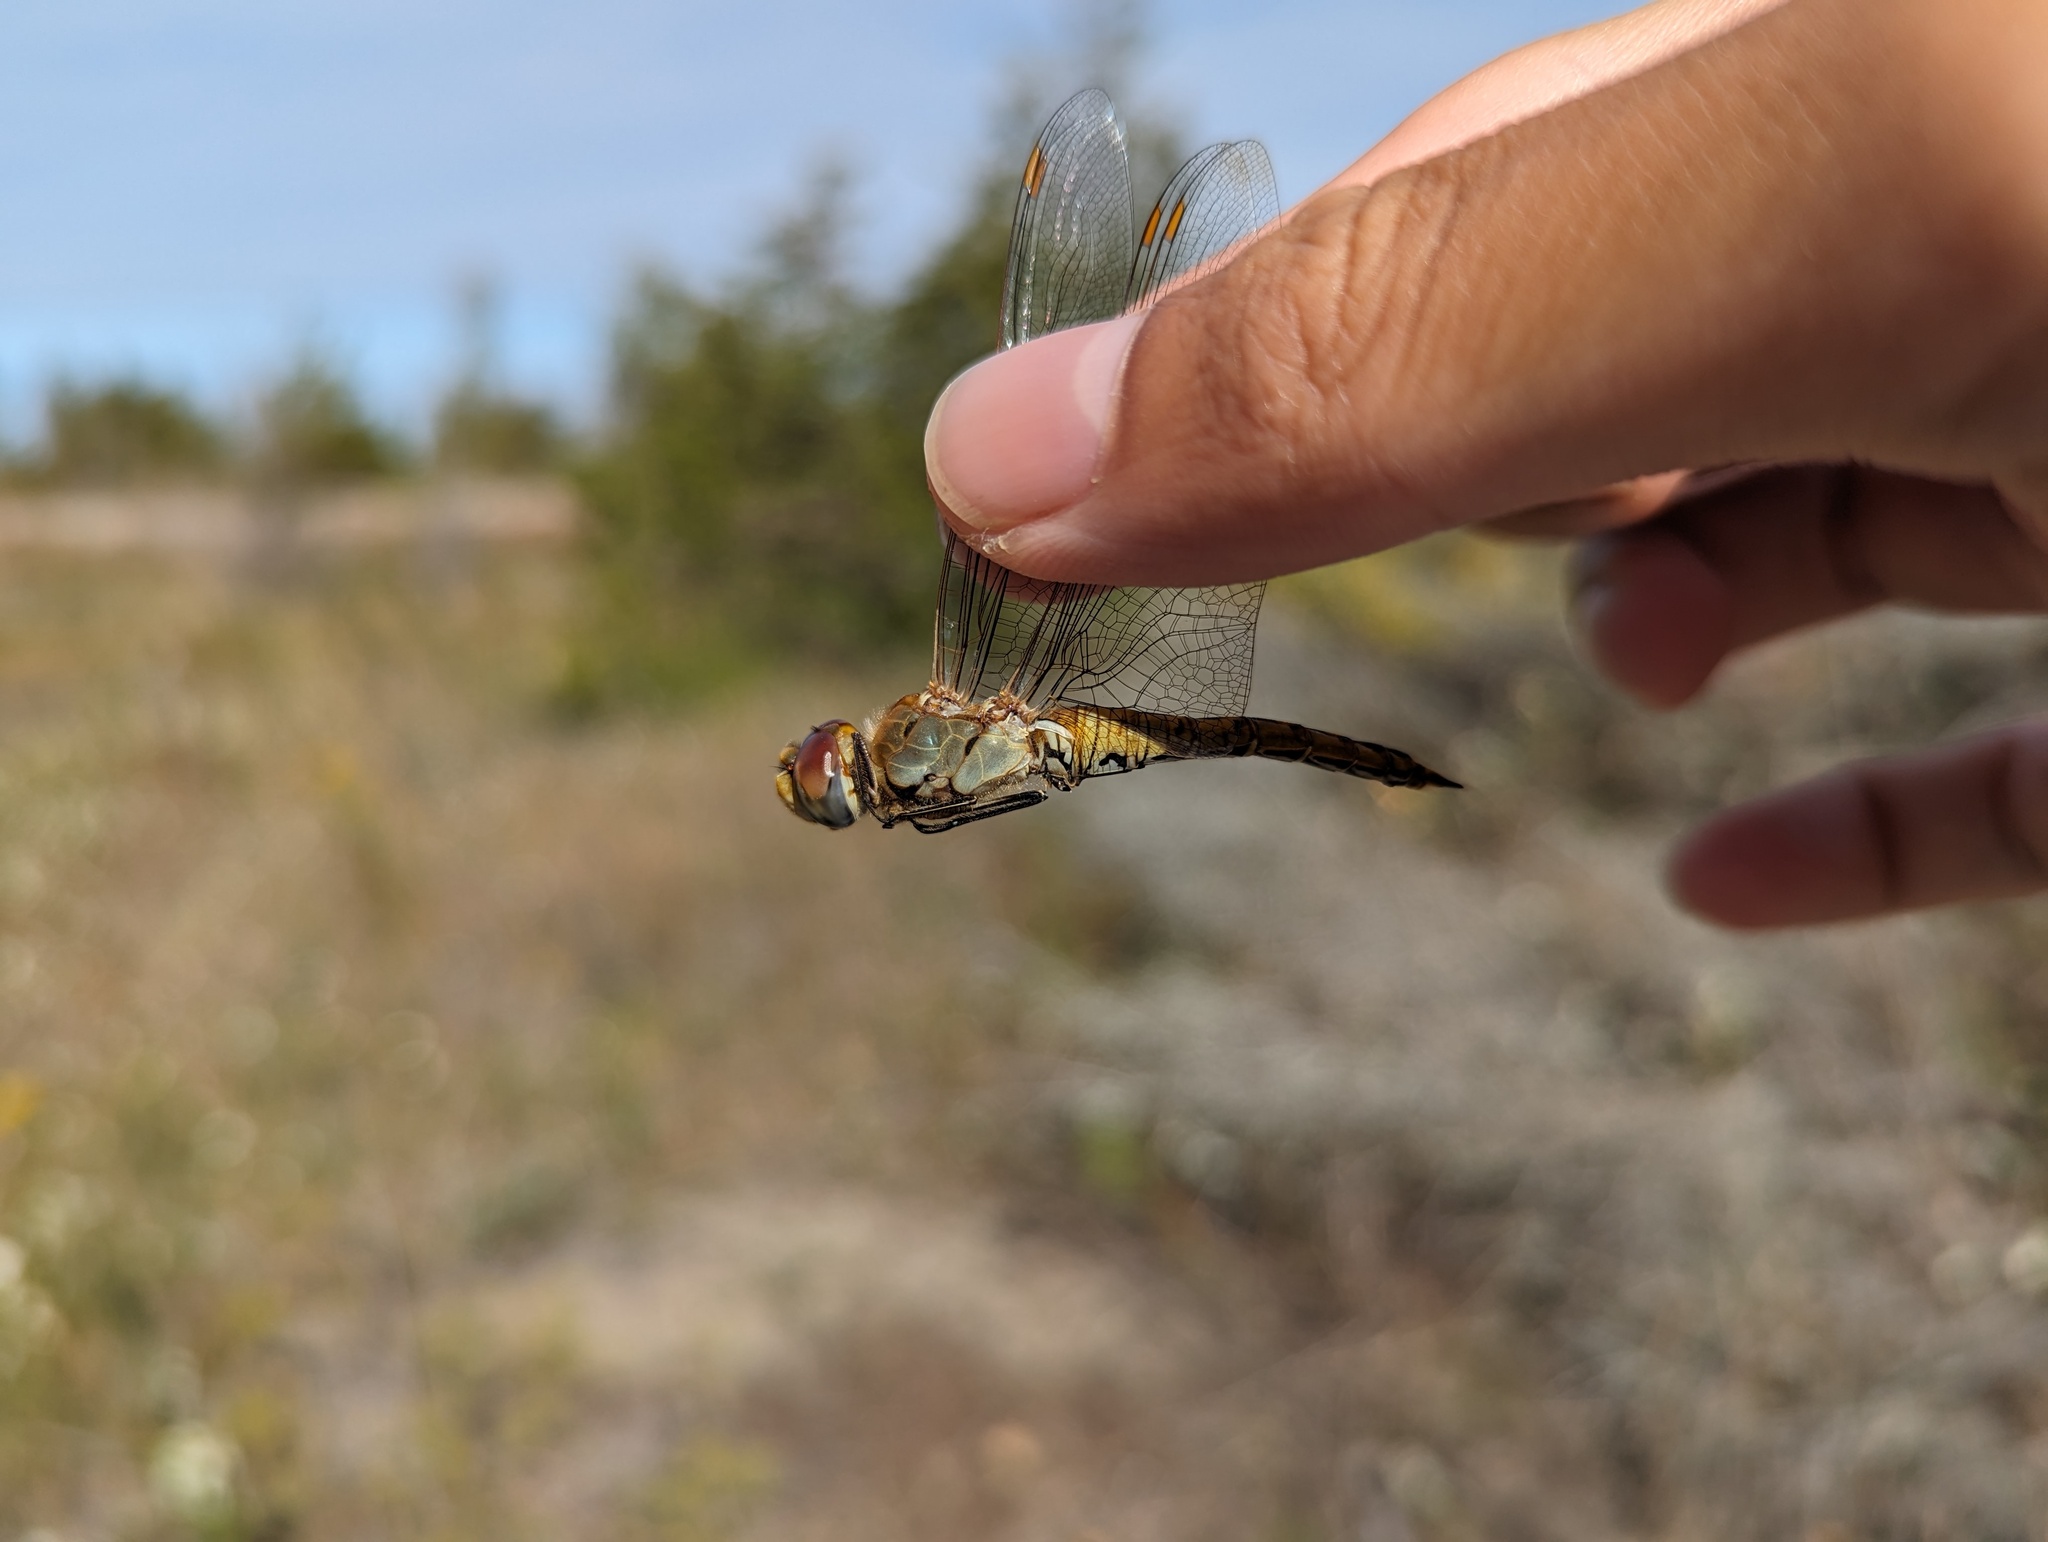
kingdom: Animalia
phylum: Arthropoda
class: Insecta
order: Odonata
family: Libellulidae
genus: Pantala
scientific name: Pantala flavescens
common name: Wandering glider
